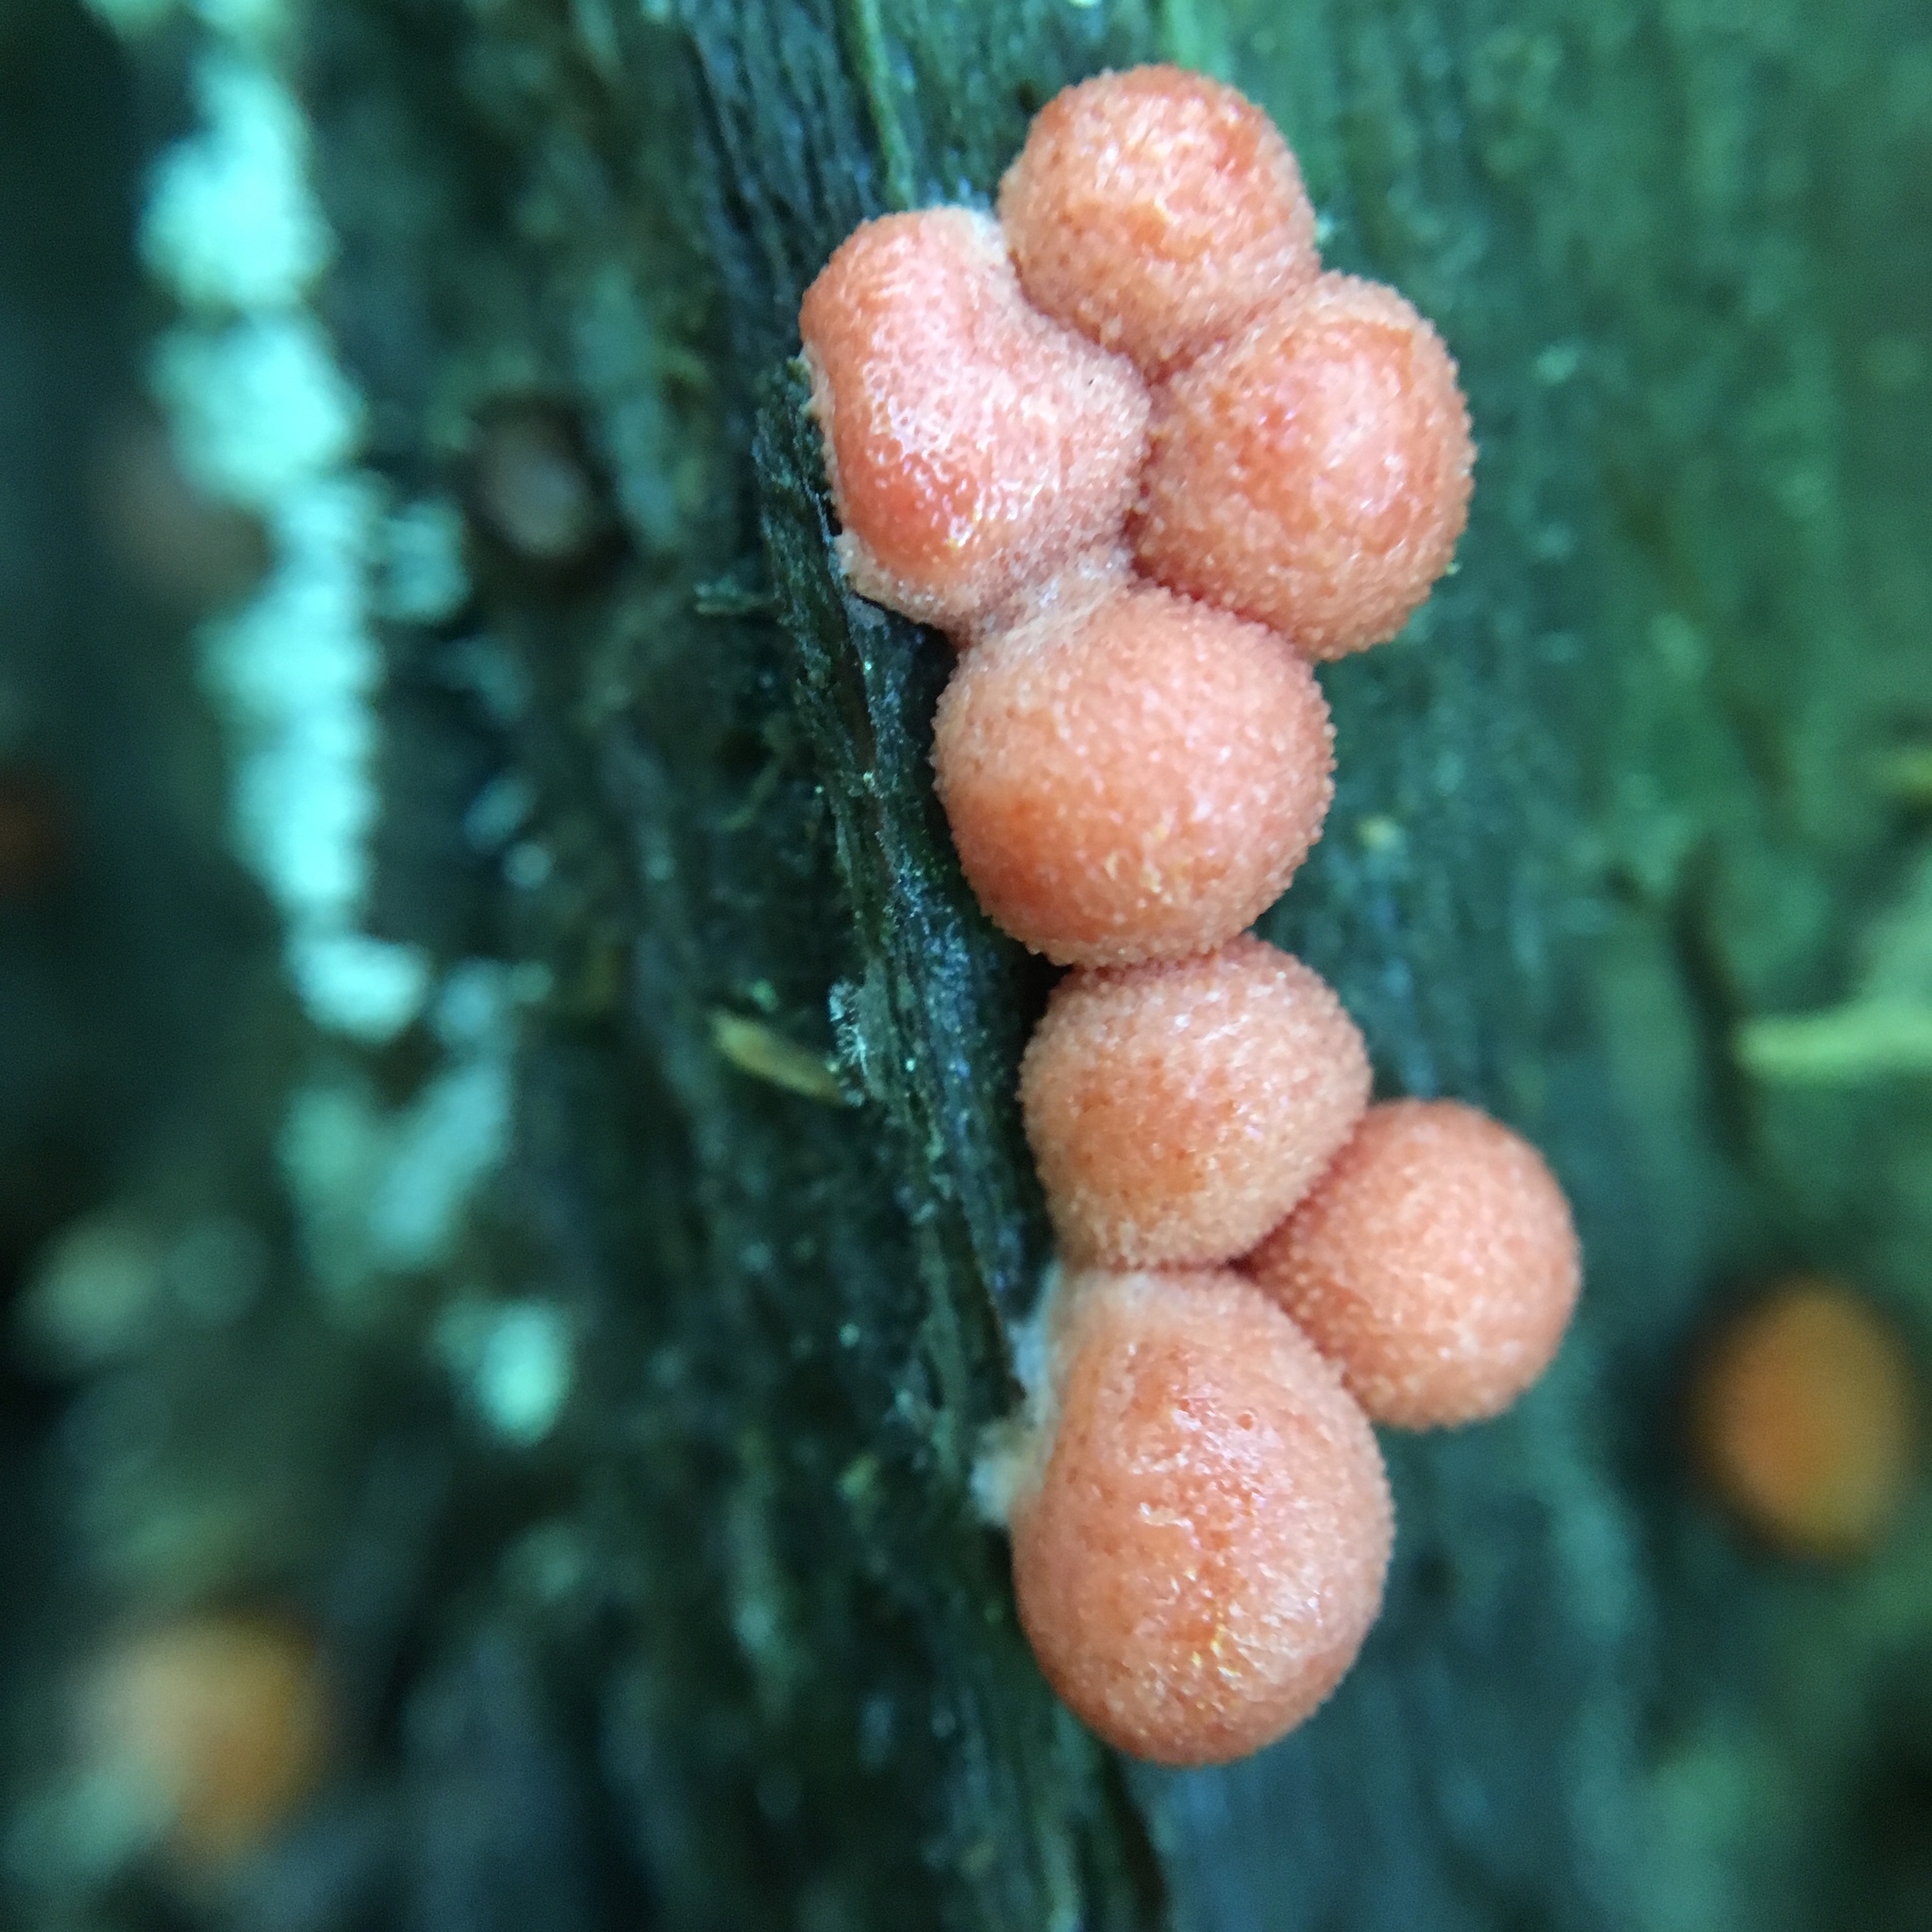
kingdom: Protozoa
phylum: Mycetozoa
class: Myxomycetes
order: Cribrariales
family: Tubiferaceae
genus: Lycogala
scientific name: Lycogala epidendrum
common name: Wolf's milk
